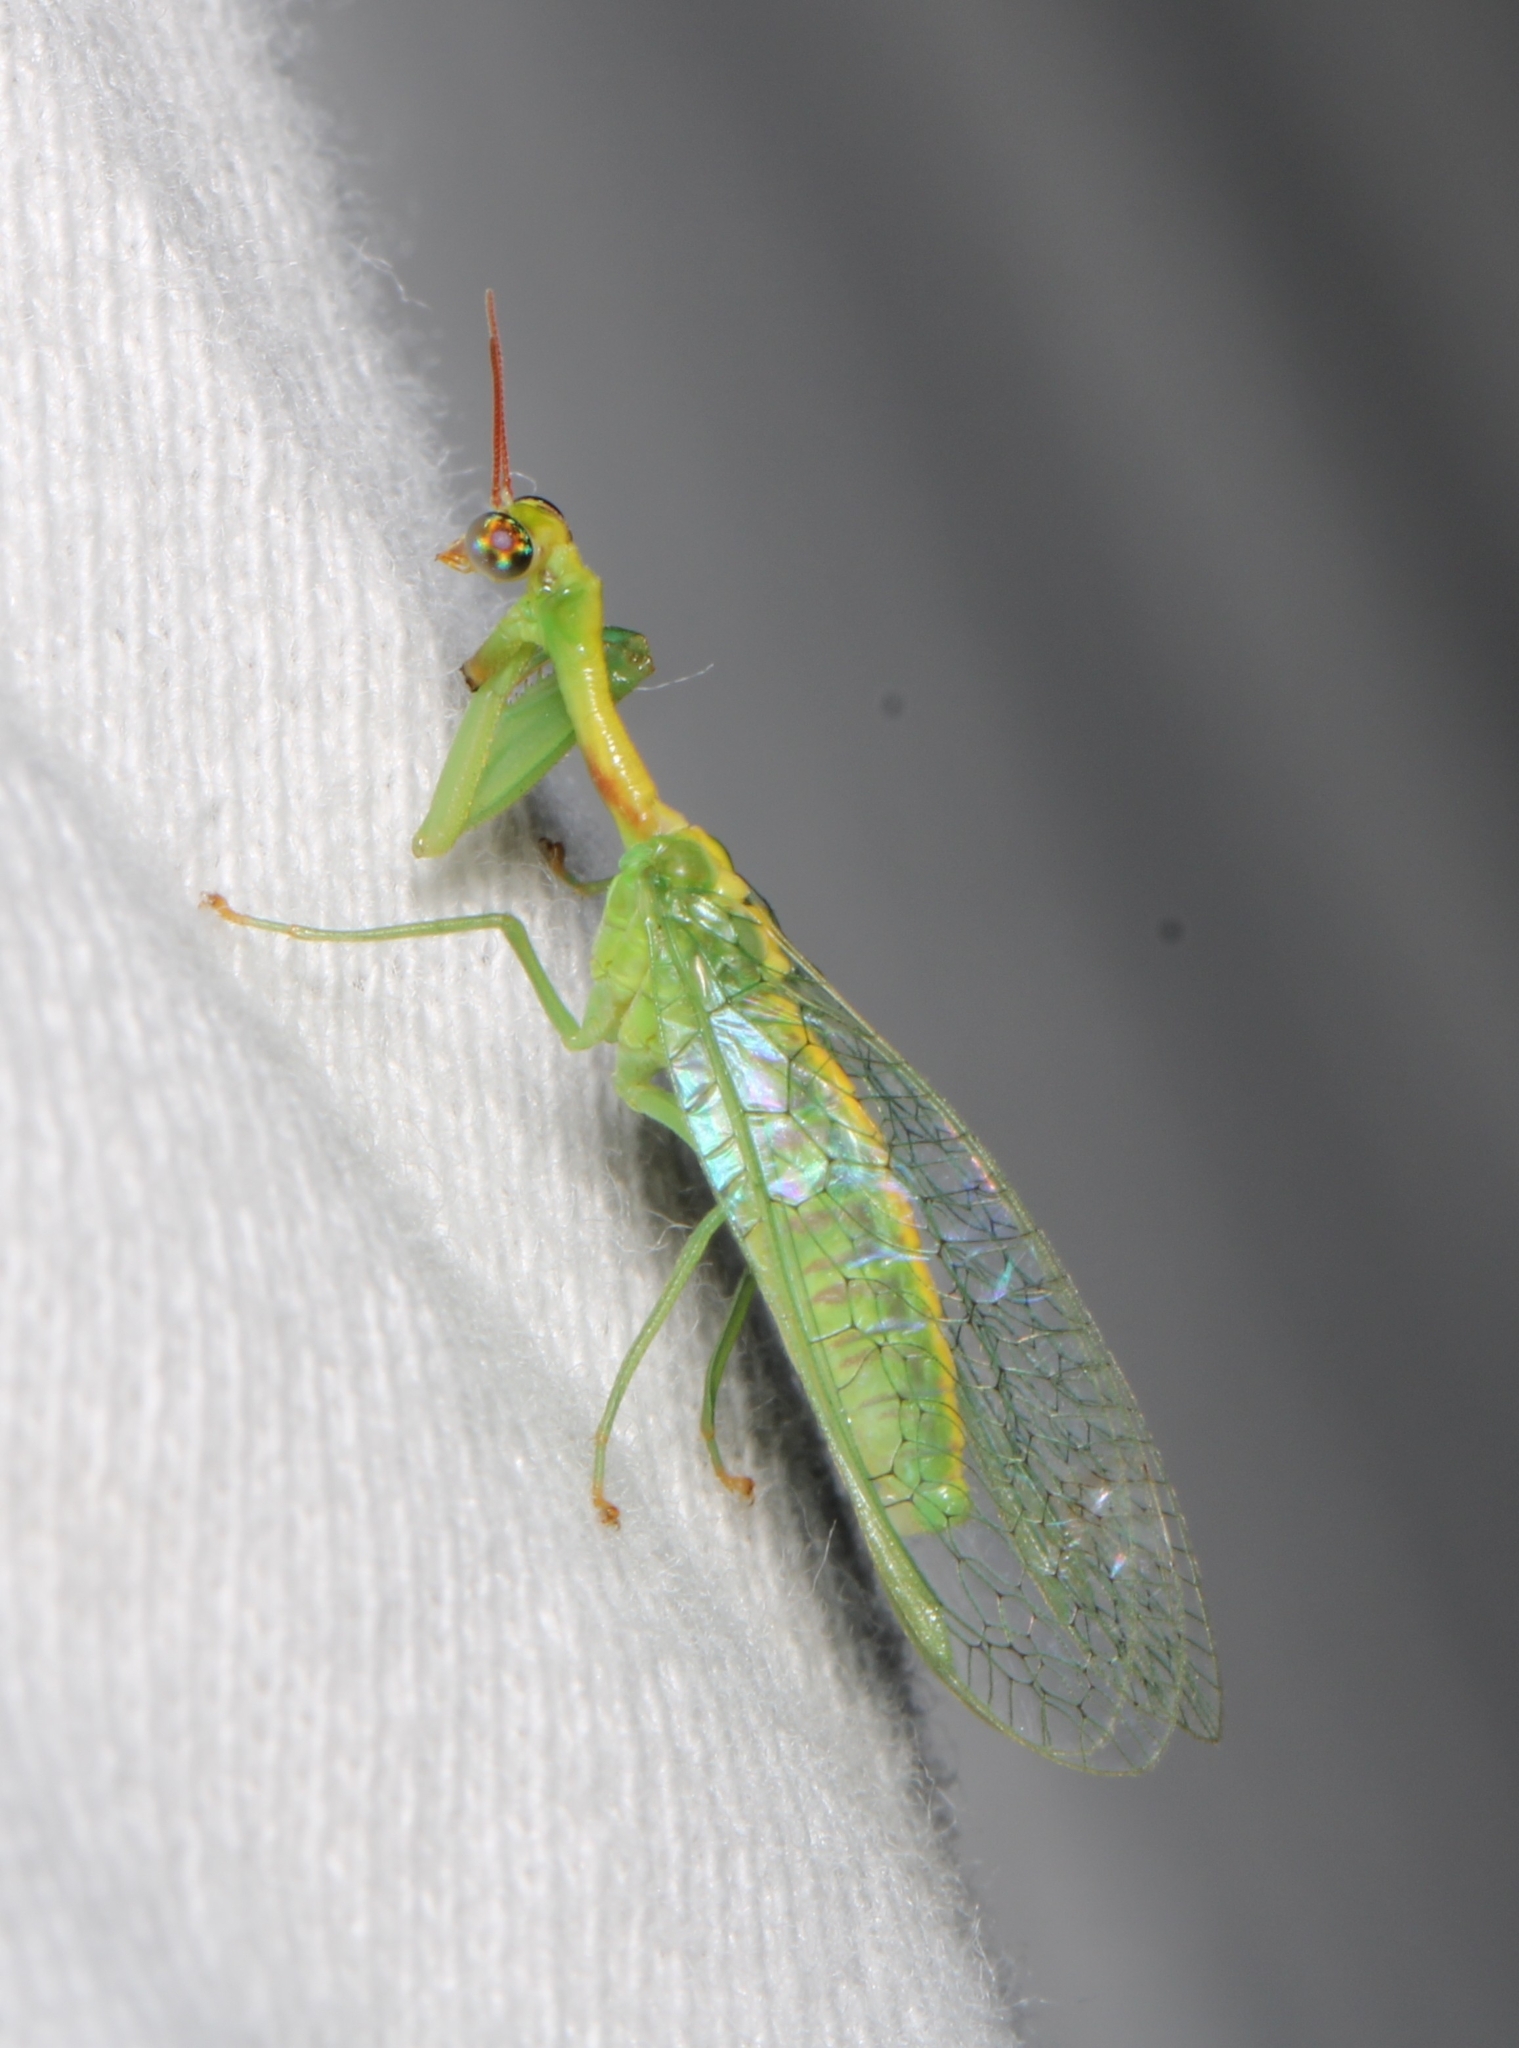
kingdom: Animalia
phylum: Arthropoda
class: Insecta
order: Neuroptera
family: Mantispidae
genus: Zeugomantispa
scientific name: Zeugomantispa minuta
